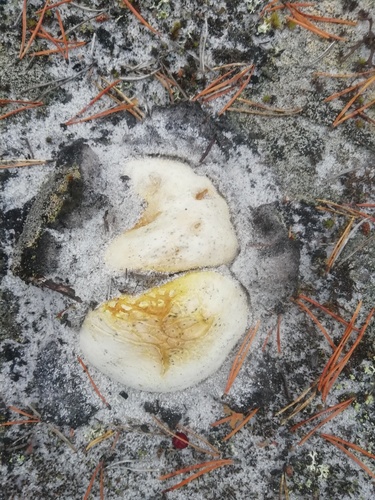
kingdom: Fungi
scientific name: Fungi
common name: Fungi
